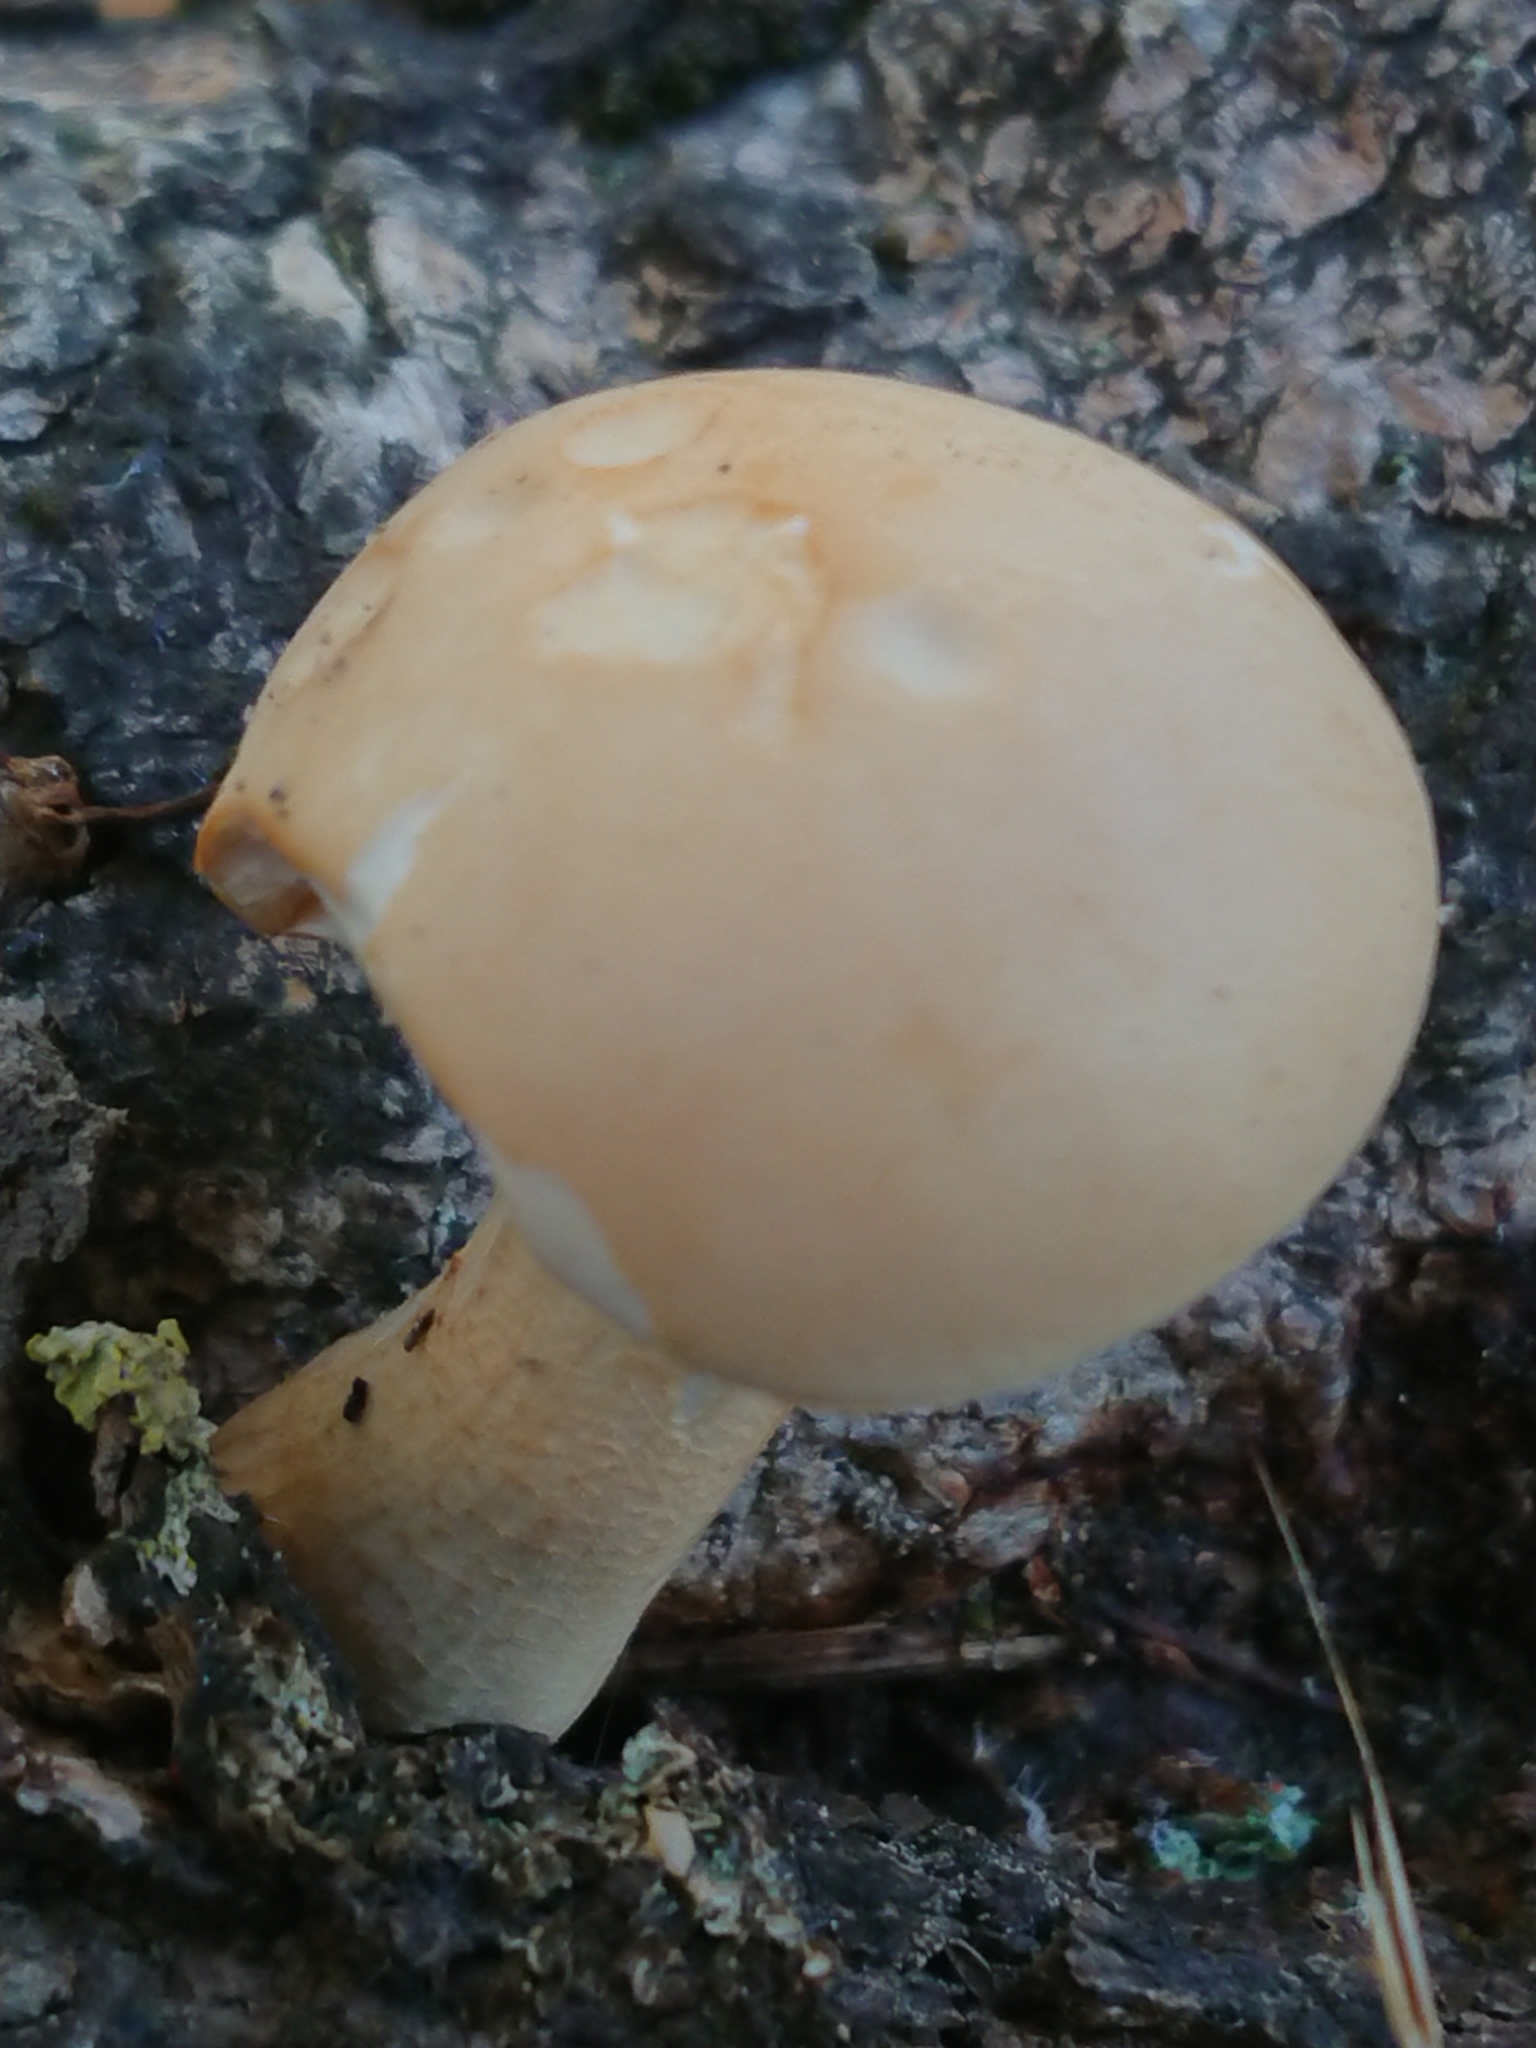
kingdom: Fungi
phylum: Basidiomycota
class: Agaricomycetes
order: Agaricales
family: Tubariaceae
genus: Cyclocybe
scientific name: Cyclocybe parasitica
